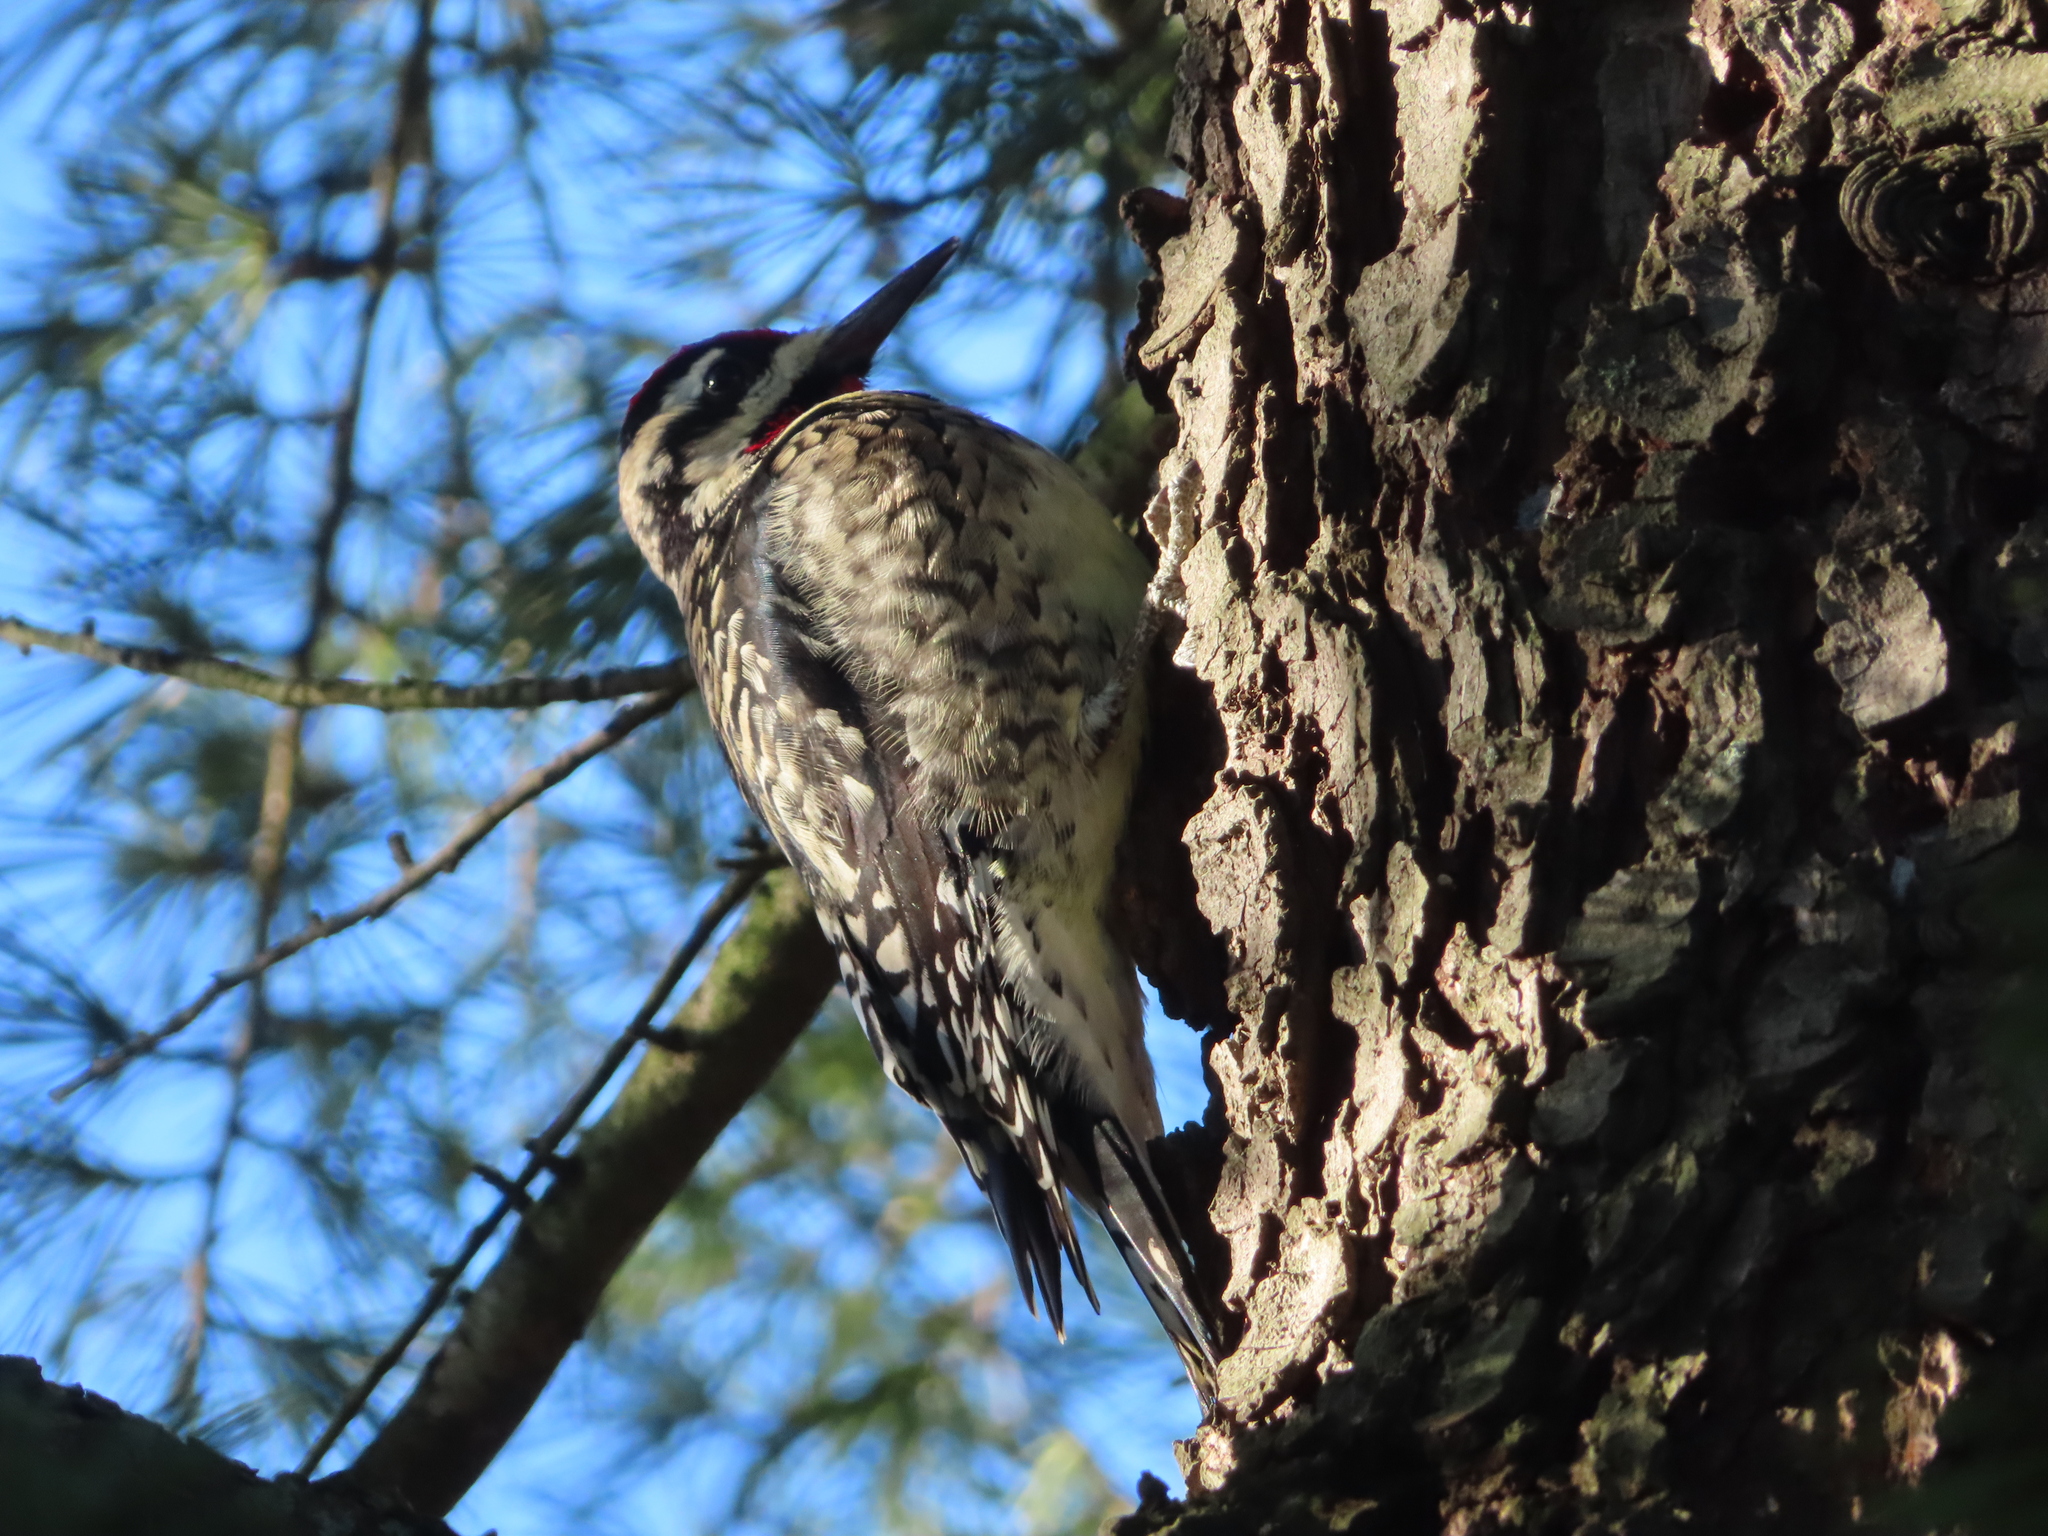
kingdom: Animalia
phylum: Chordata
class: Aves
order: Piciformes
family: Picidae
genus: Sphyrapicus
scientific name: Sphyrapicus varius
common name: Yellow-bellied sapsucker
